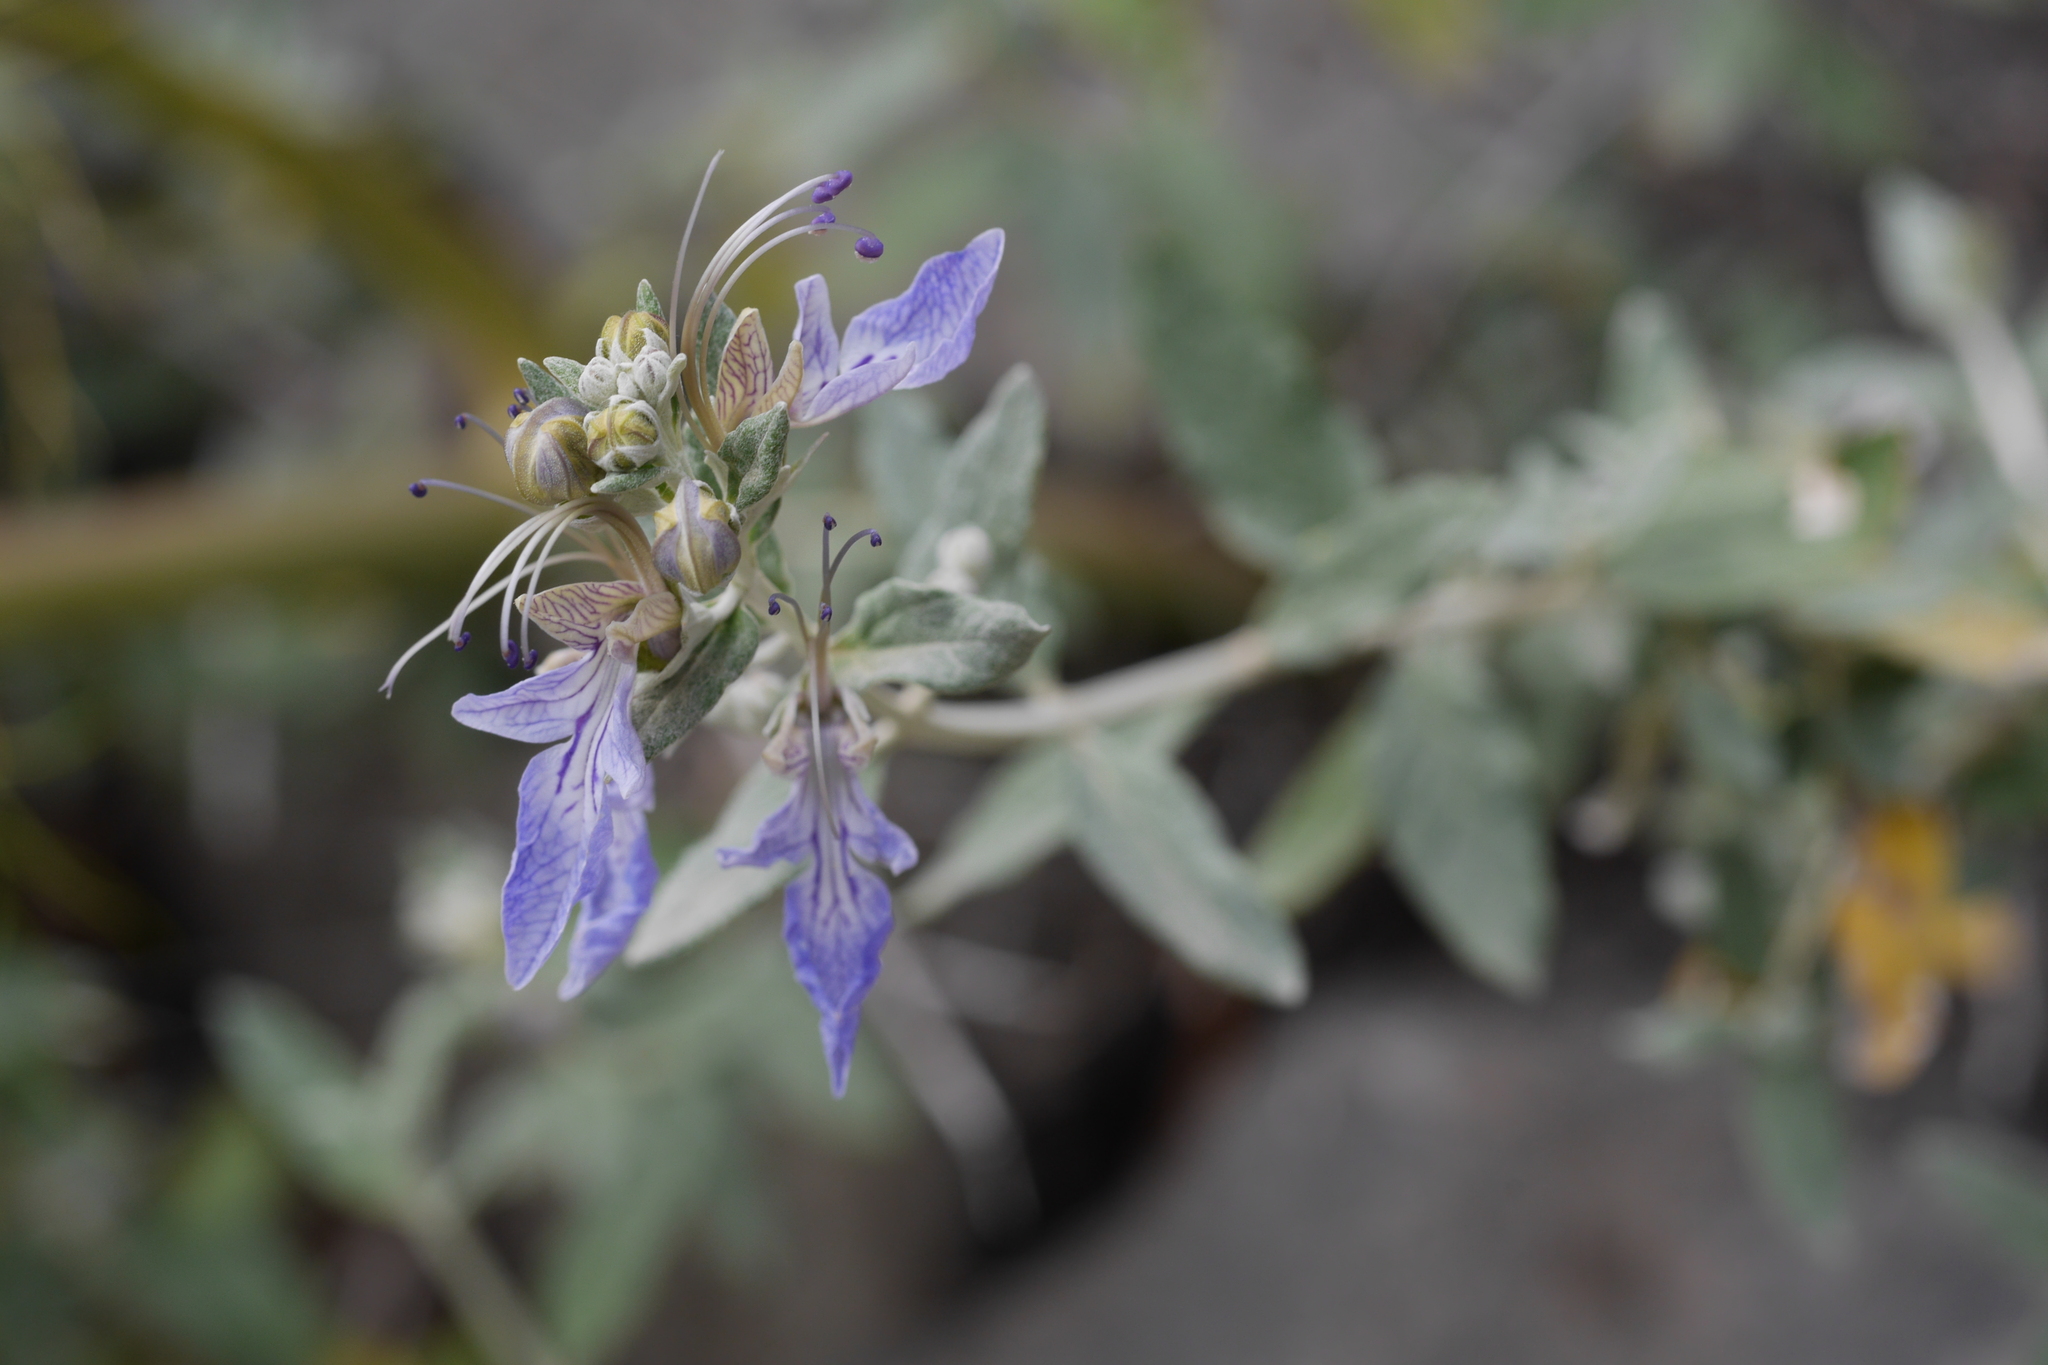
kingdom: Plantae
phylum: Tracheophyta
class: Magnoliopsida
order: Lamiales
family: Lamiaceae
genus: Teucrium
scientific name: Teucrium fruticans
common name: Shrubby germander
